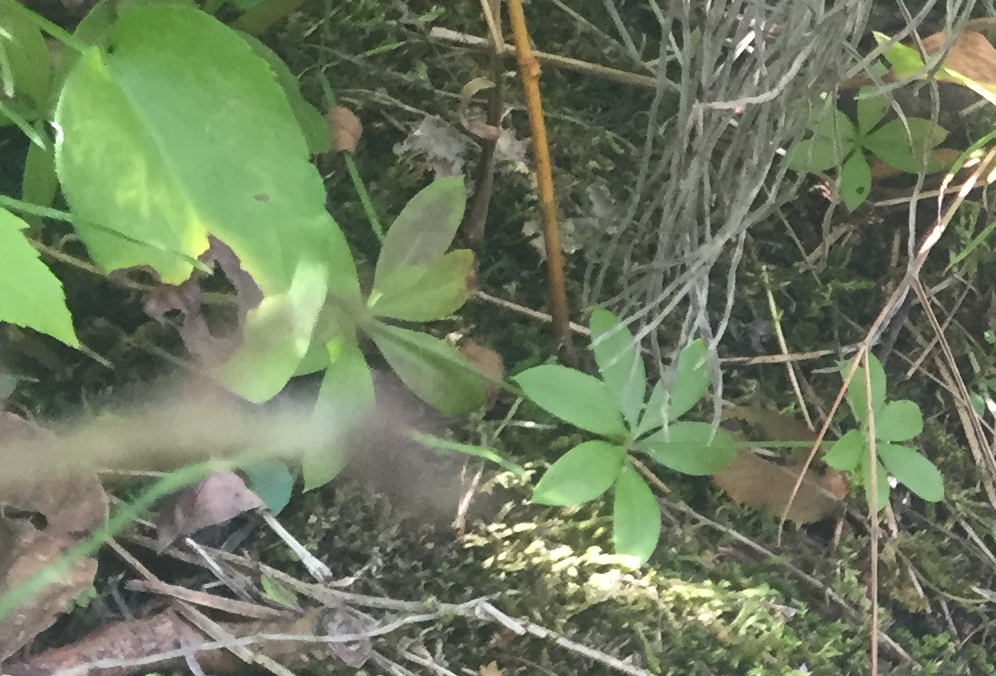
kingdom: Plantae
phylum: Tracheophyta
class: Magnoliopsida
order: Gentianales
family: Rubiaceae
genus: Galium
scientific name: Galium triflorum
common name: Fragrant bedstraw
